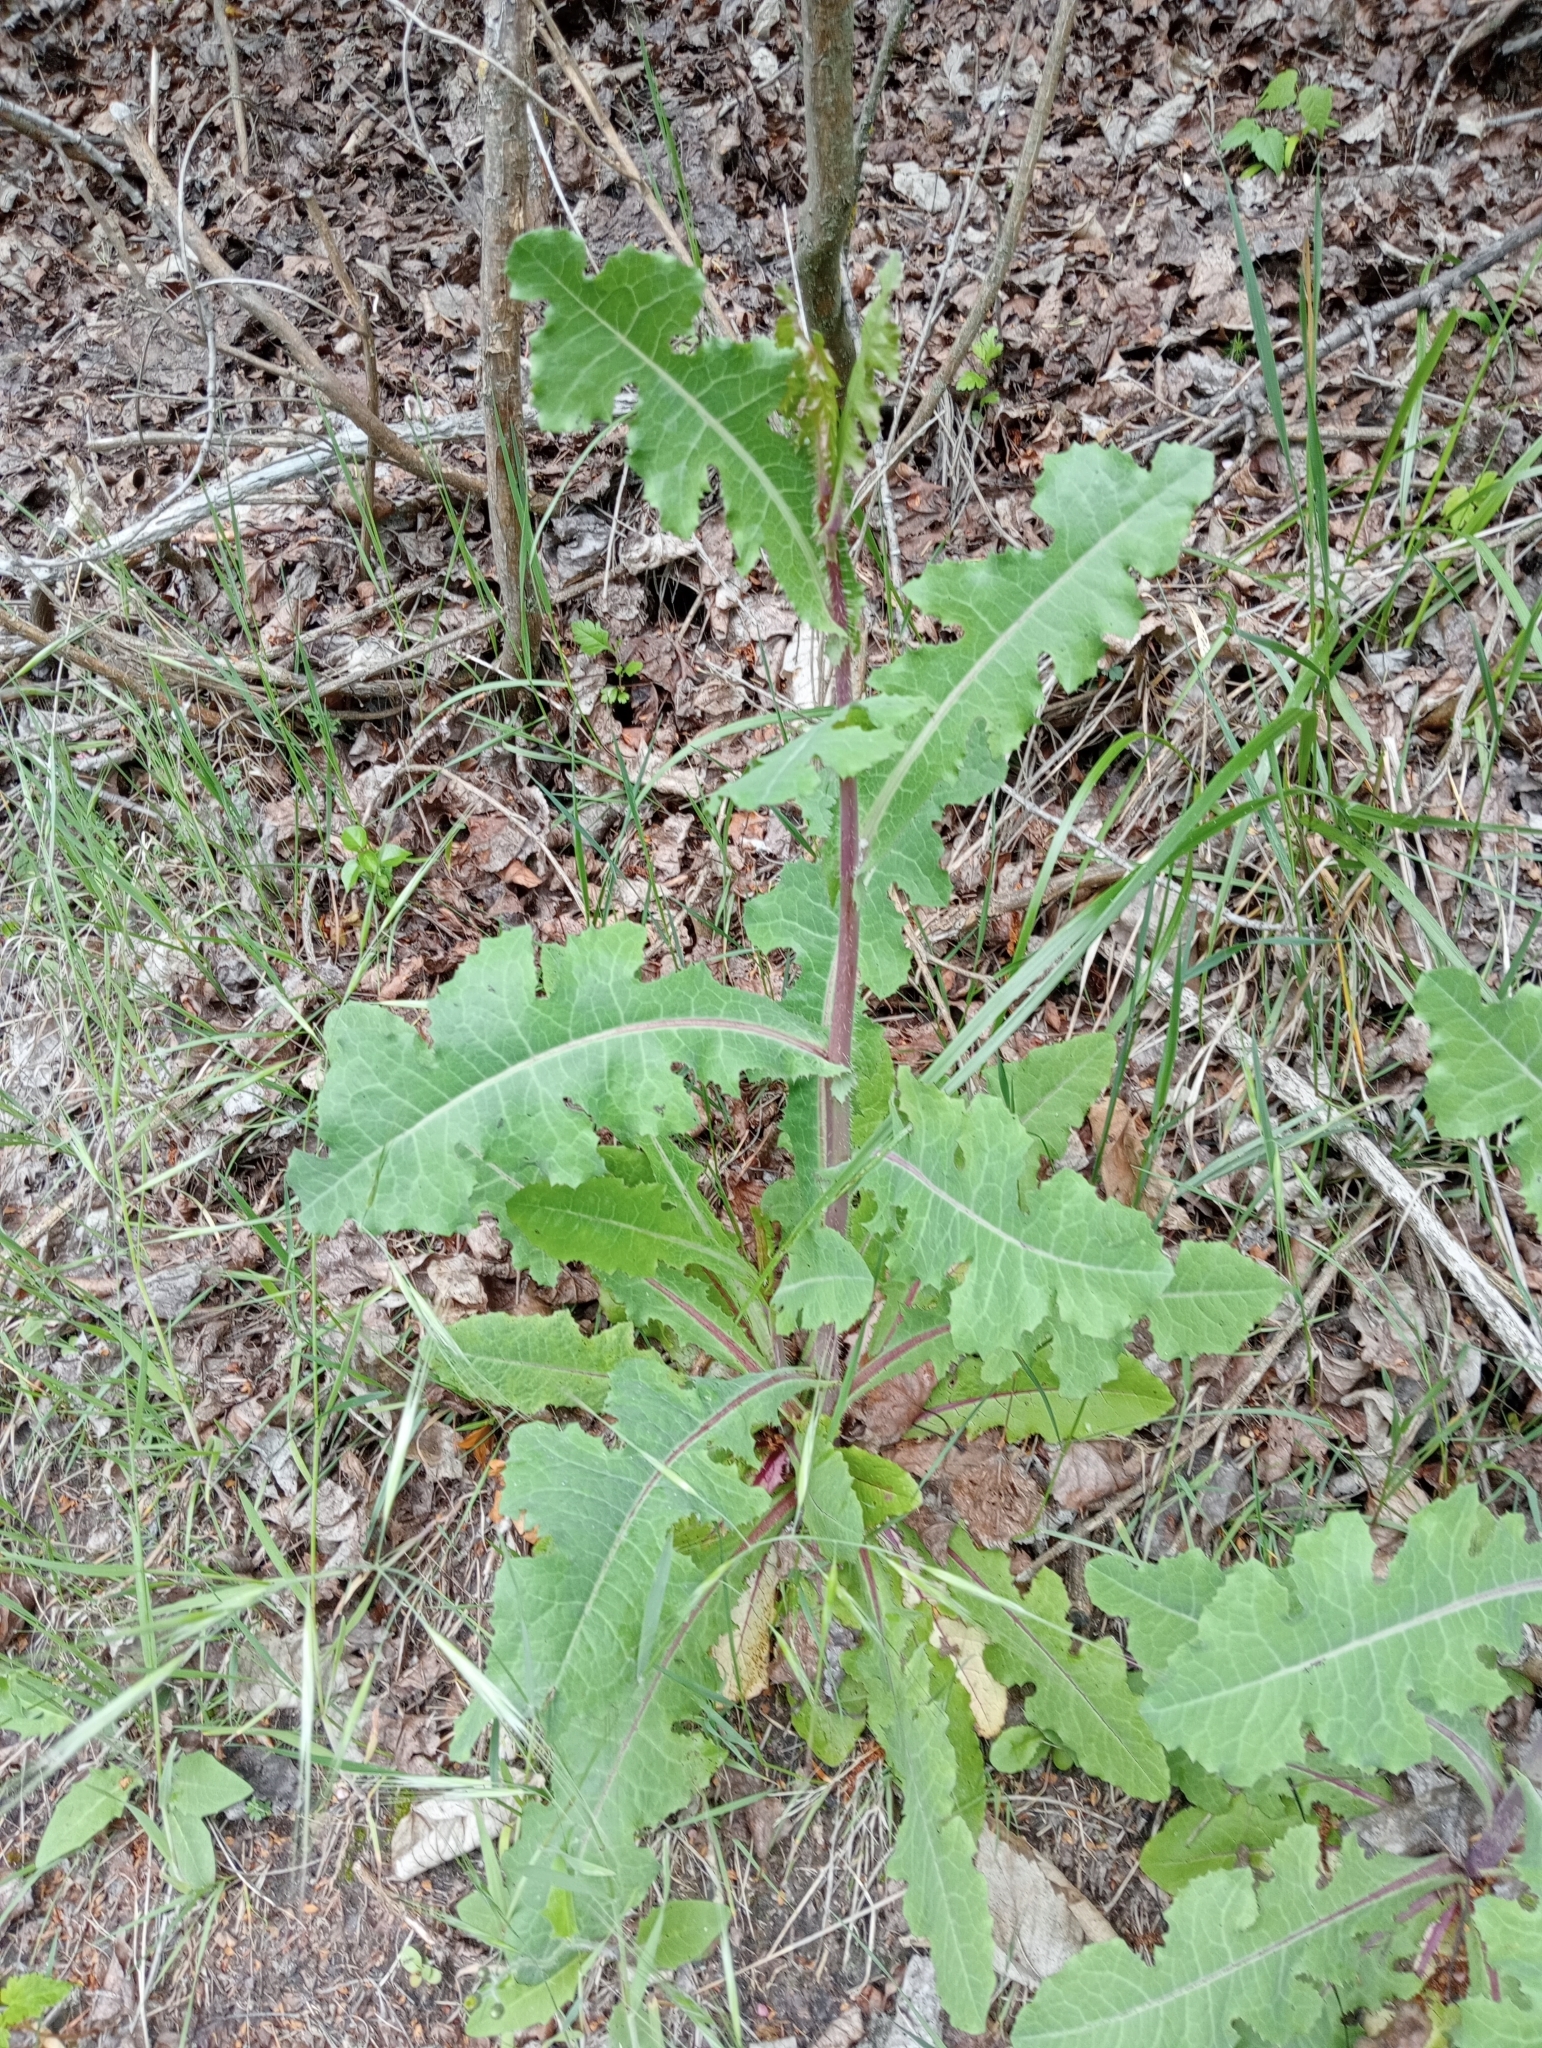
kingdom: Plantae
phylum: Tracheophyta
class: Magnoliopsida
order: Asterales
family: Asteraceae
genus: Lactuca
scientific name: Lactuca virosa
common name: Great lettuce
